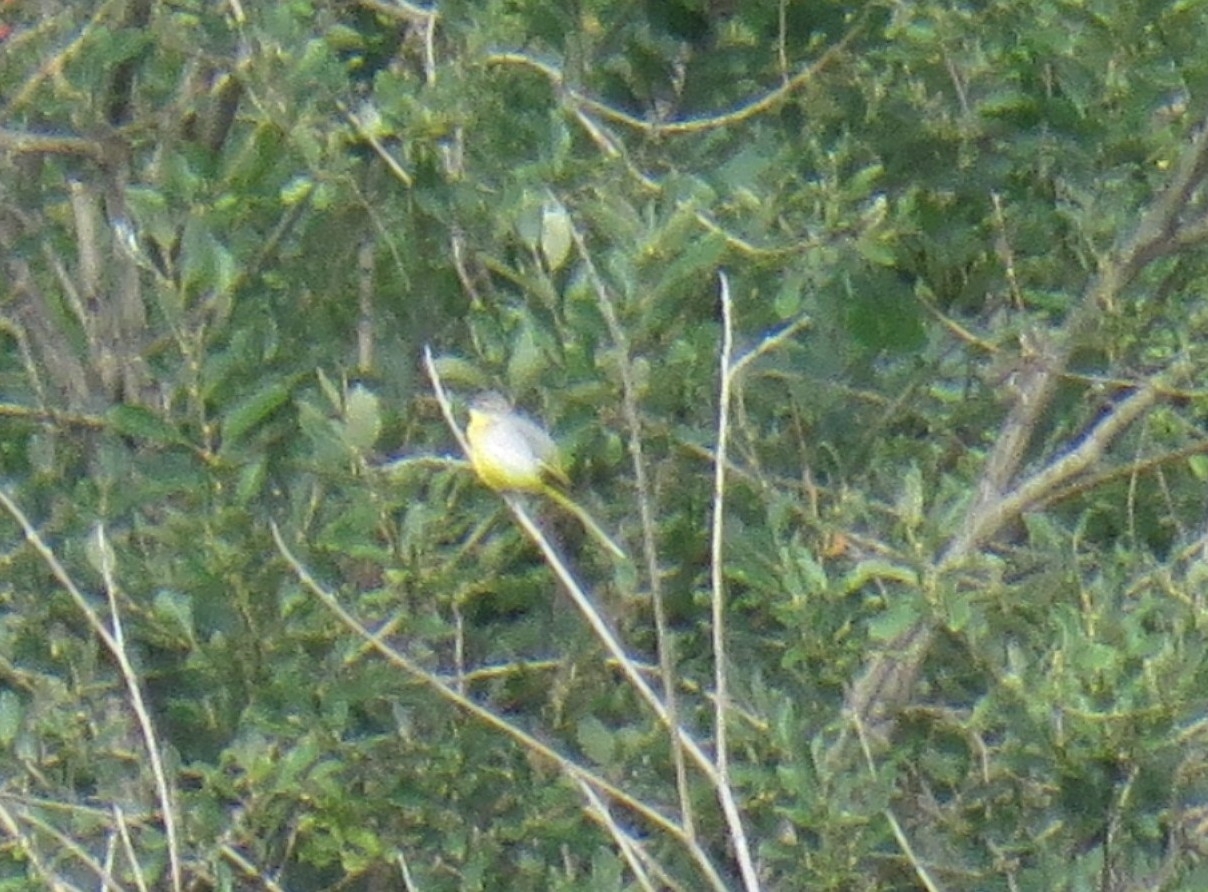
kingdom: Animalia
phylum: Chordata
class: Aves
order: Passeriformes
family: Motacillidae
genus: Motacilla
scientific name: Motacilla cinerea
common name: Grey wagtail
